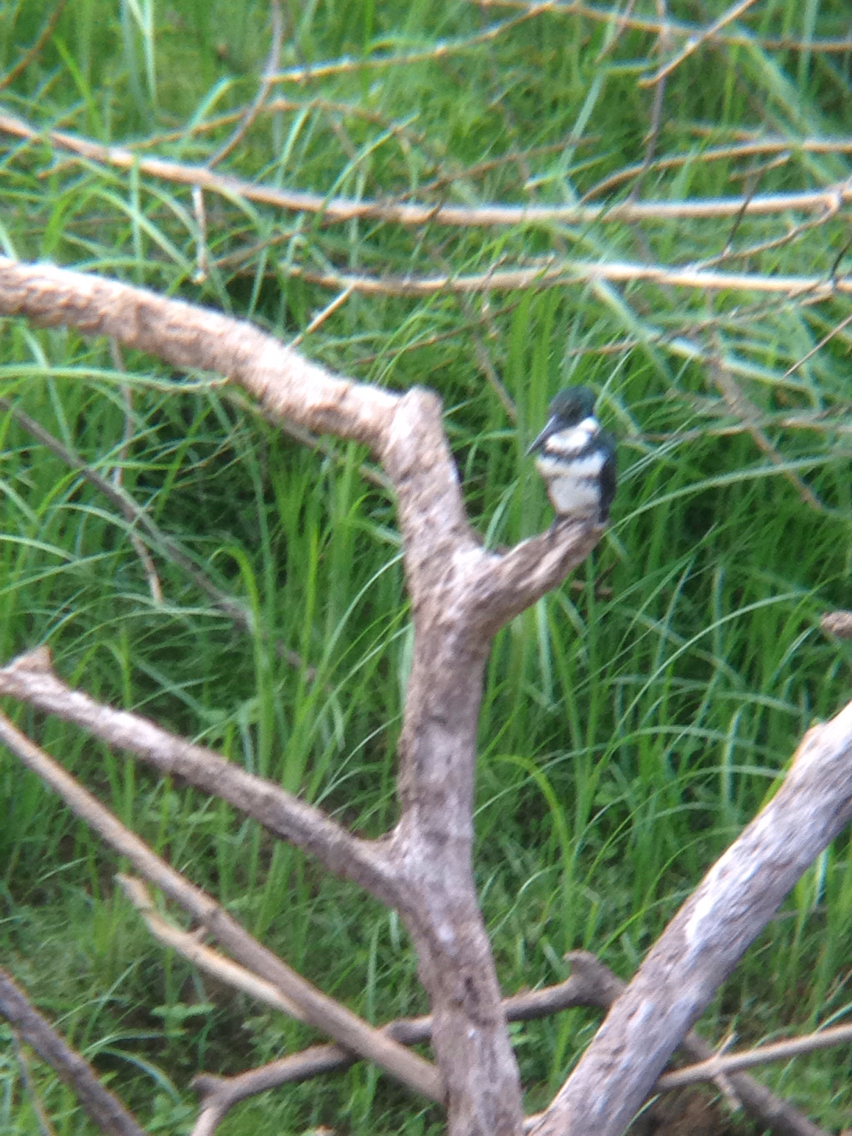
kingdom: Animalia
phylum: Chordata
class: Aves
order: Coraciiformes
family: Alcedinidae
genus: Chloroceryle
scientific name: Chloroceryle americana
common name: Green kingfisher
